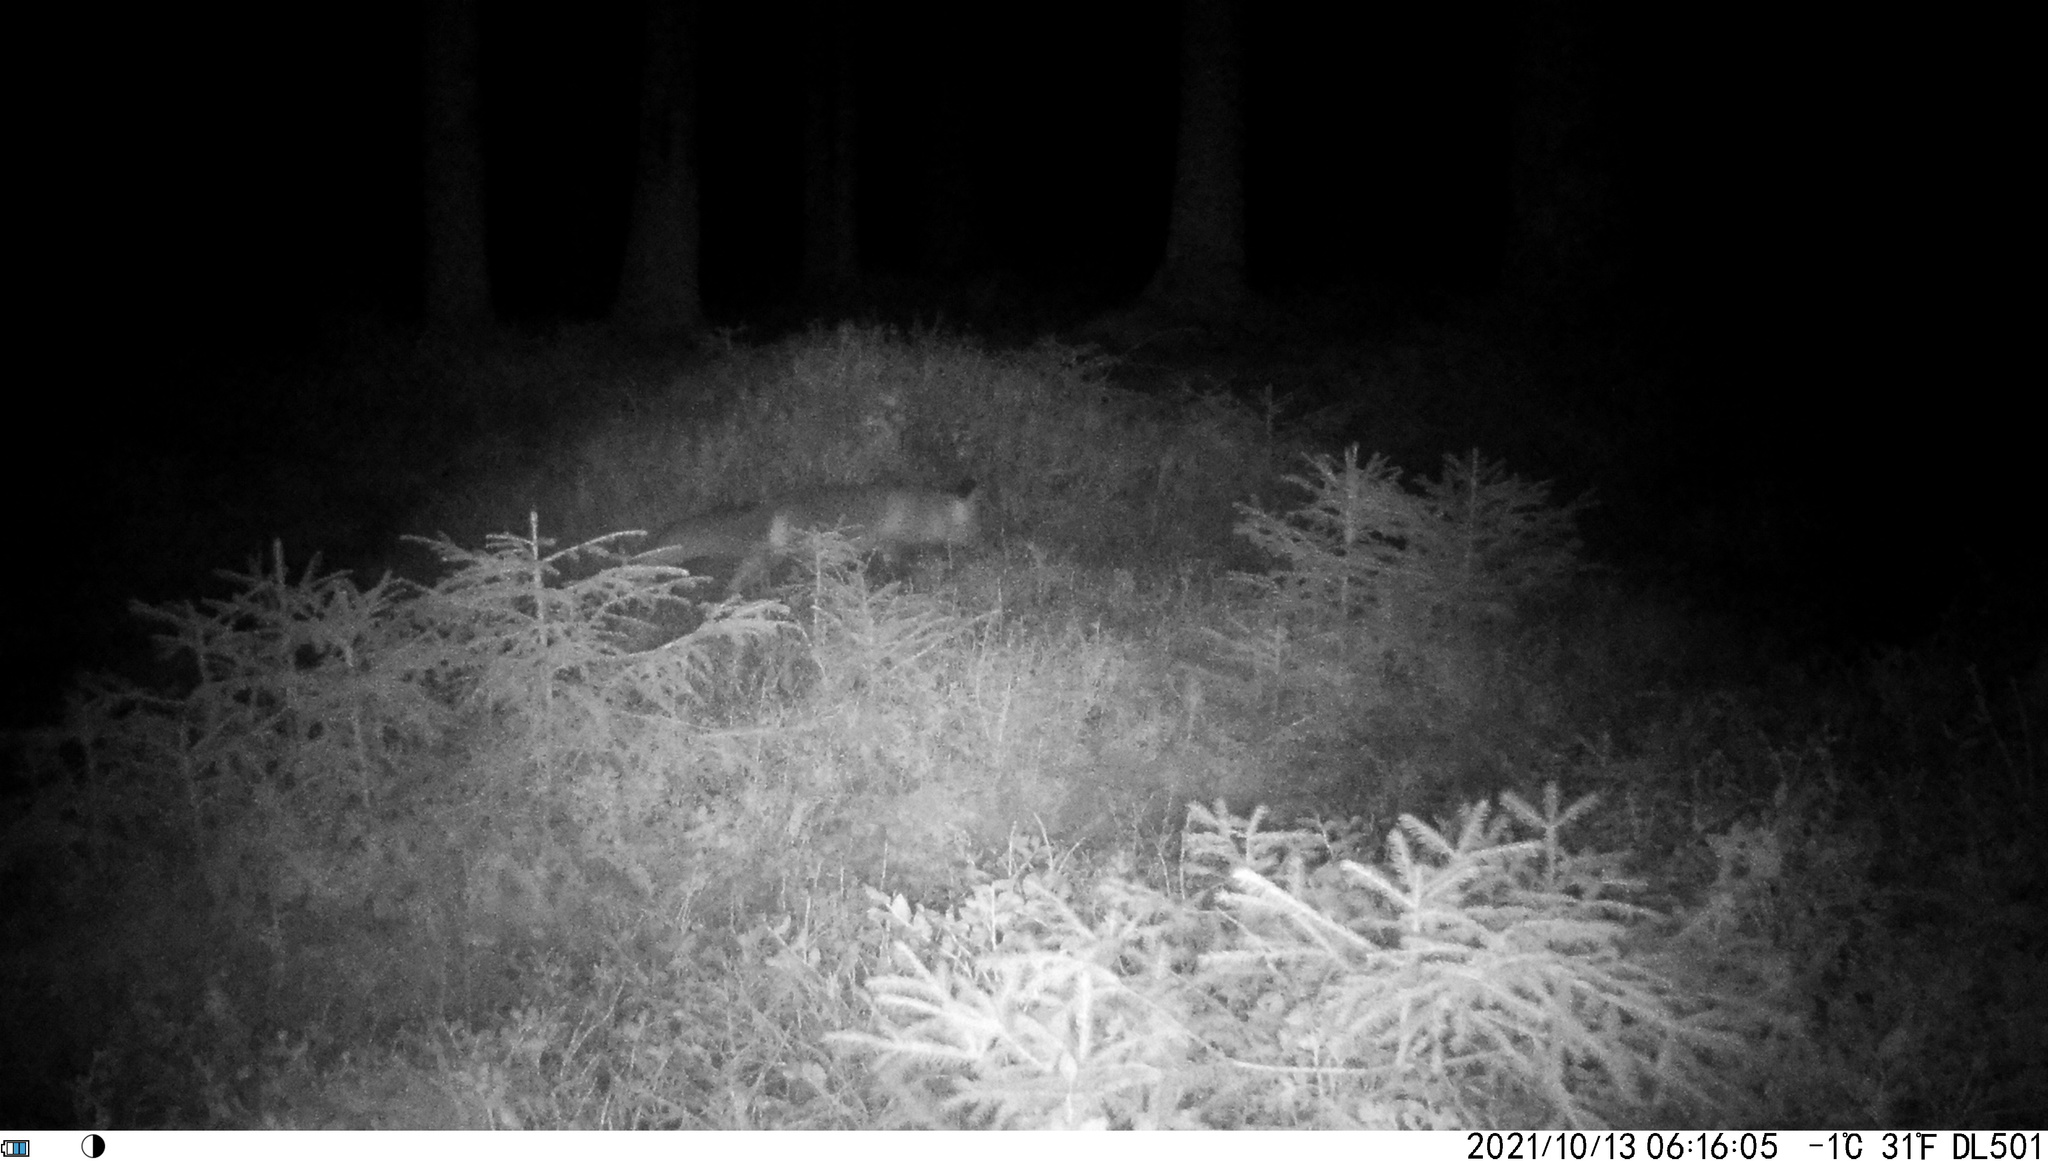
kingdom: Animalia
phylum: Chordata
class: Mammalia
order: Carnivora
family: Canidae
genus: Vulpes
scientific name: Vulpes vulpes
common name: Red fox
